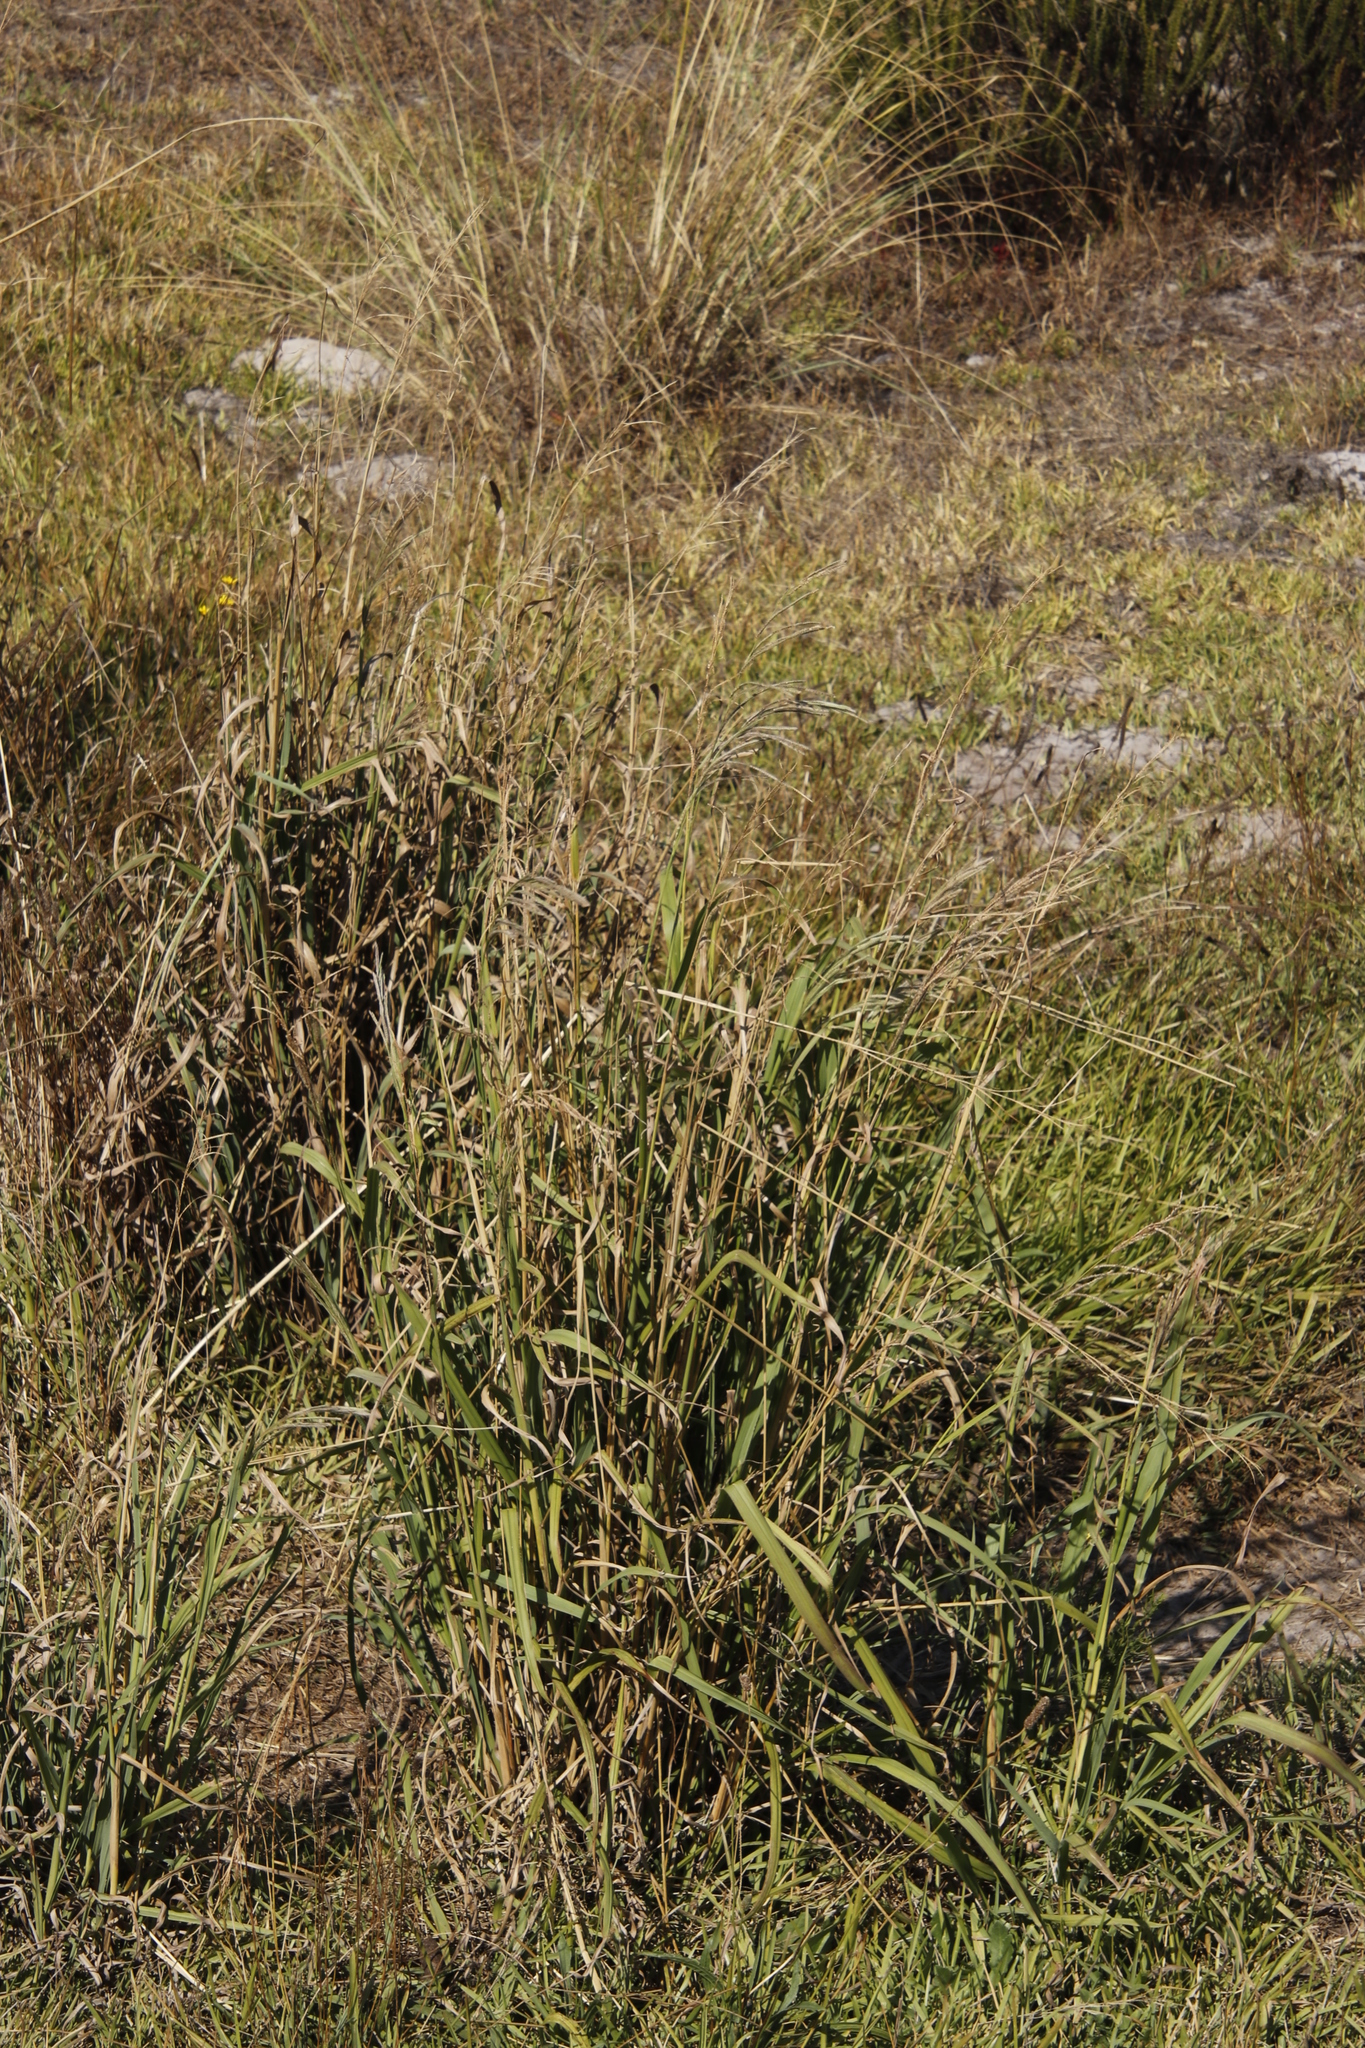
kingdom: Plantae
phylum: Tracheophyta
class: Liliopsida
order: Poales
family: Poaceae
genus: Paspalum
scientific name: Paspalum urvillei
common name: Vasey's grass
